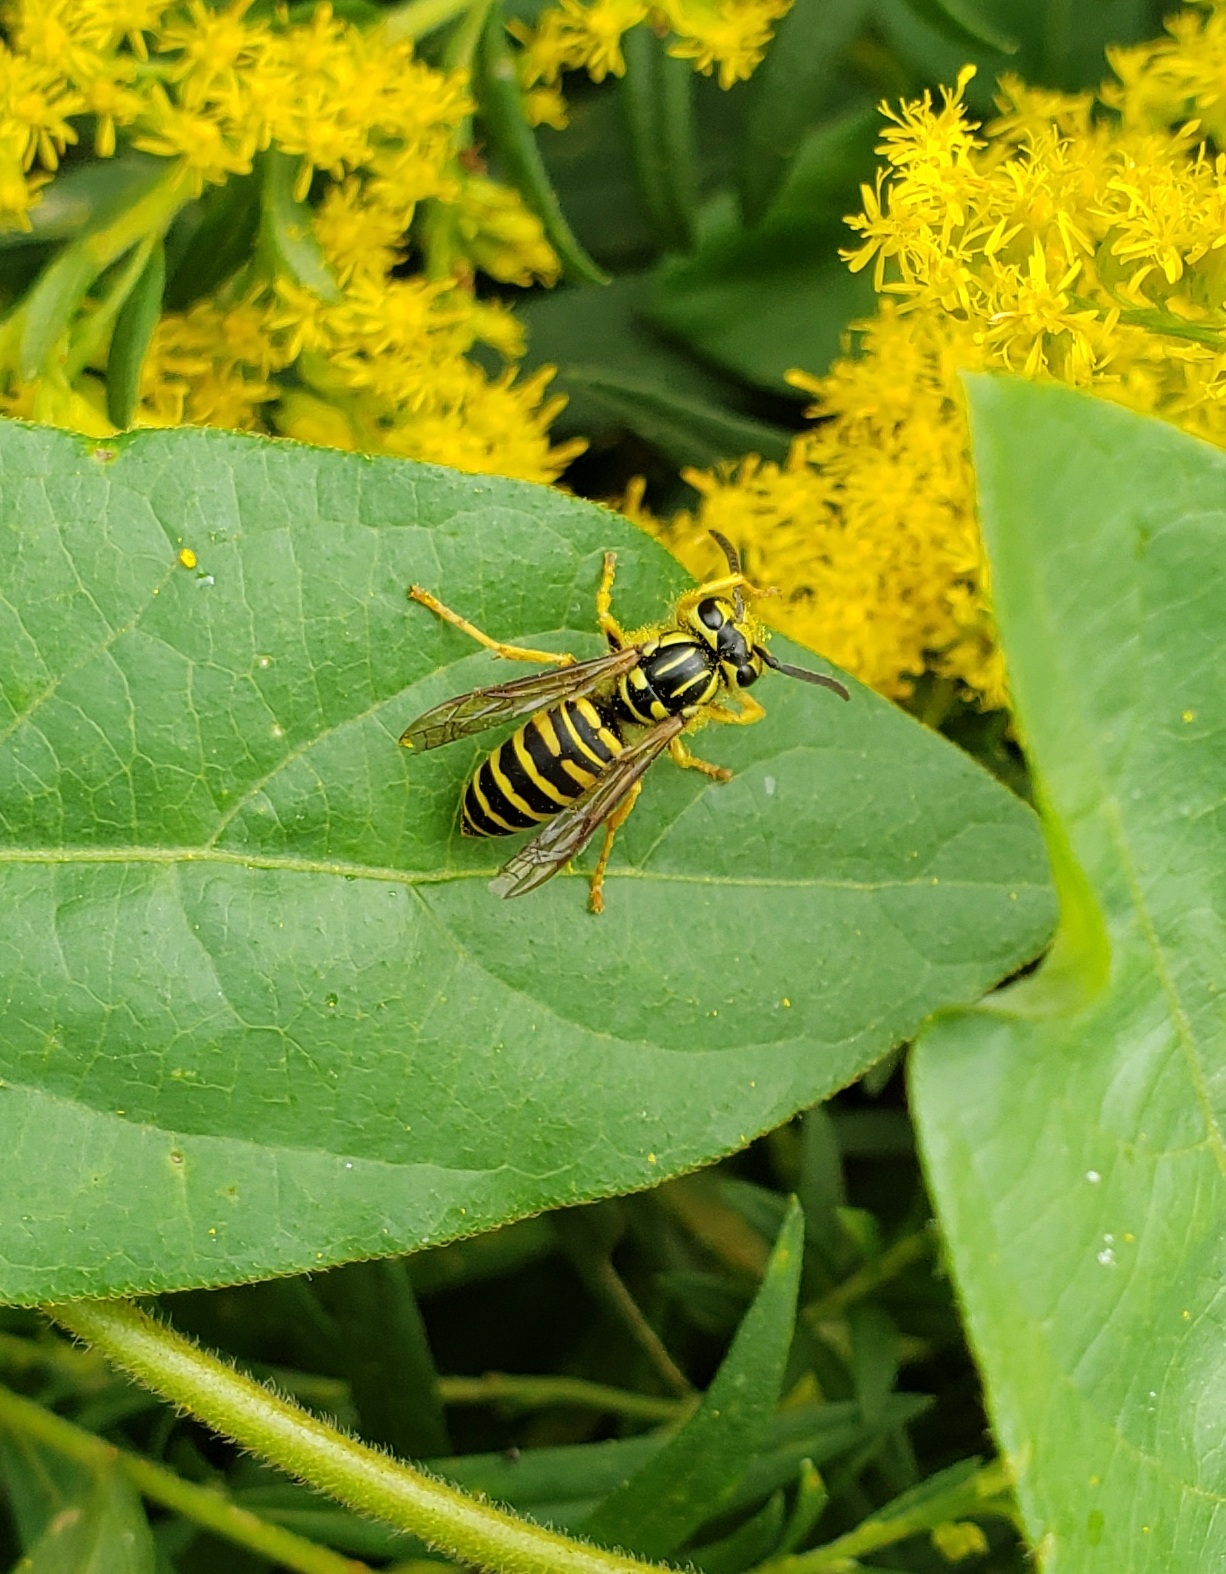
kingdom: Animalia
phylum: Arthropoda
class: Insecta
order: Hymenoptera
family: Vespidae
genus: Vespula
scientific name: Vespula squamosa
